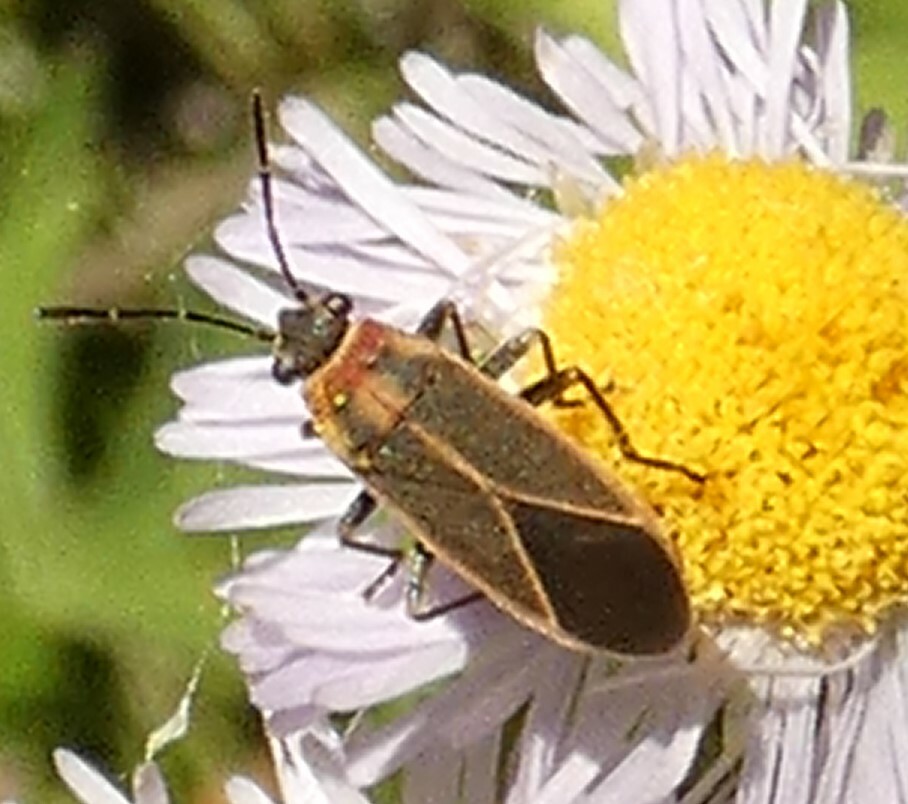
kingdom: Animalia
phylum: Arthropoda
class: Insecta
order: Hemiptera
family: Lygaeidae
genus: Ochrimnus
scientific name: Ochrimnus mimulus
